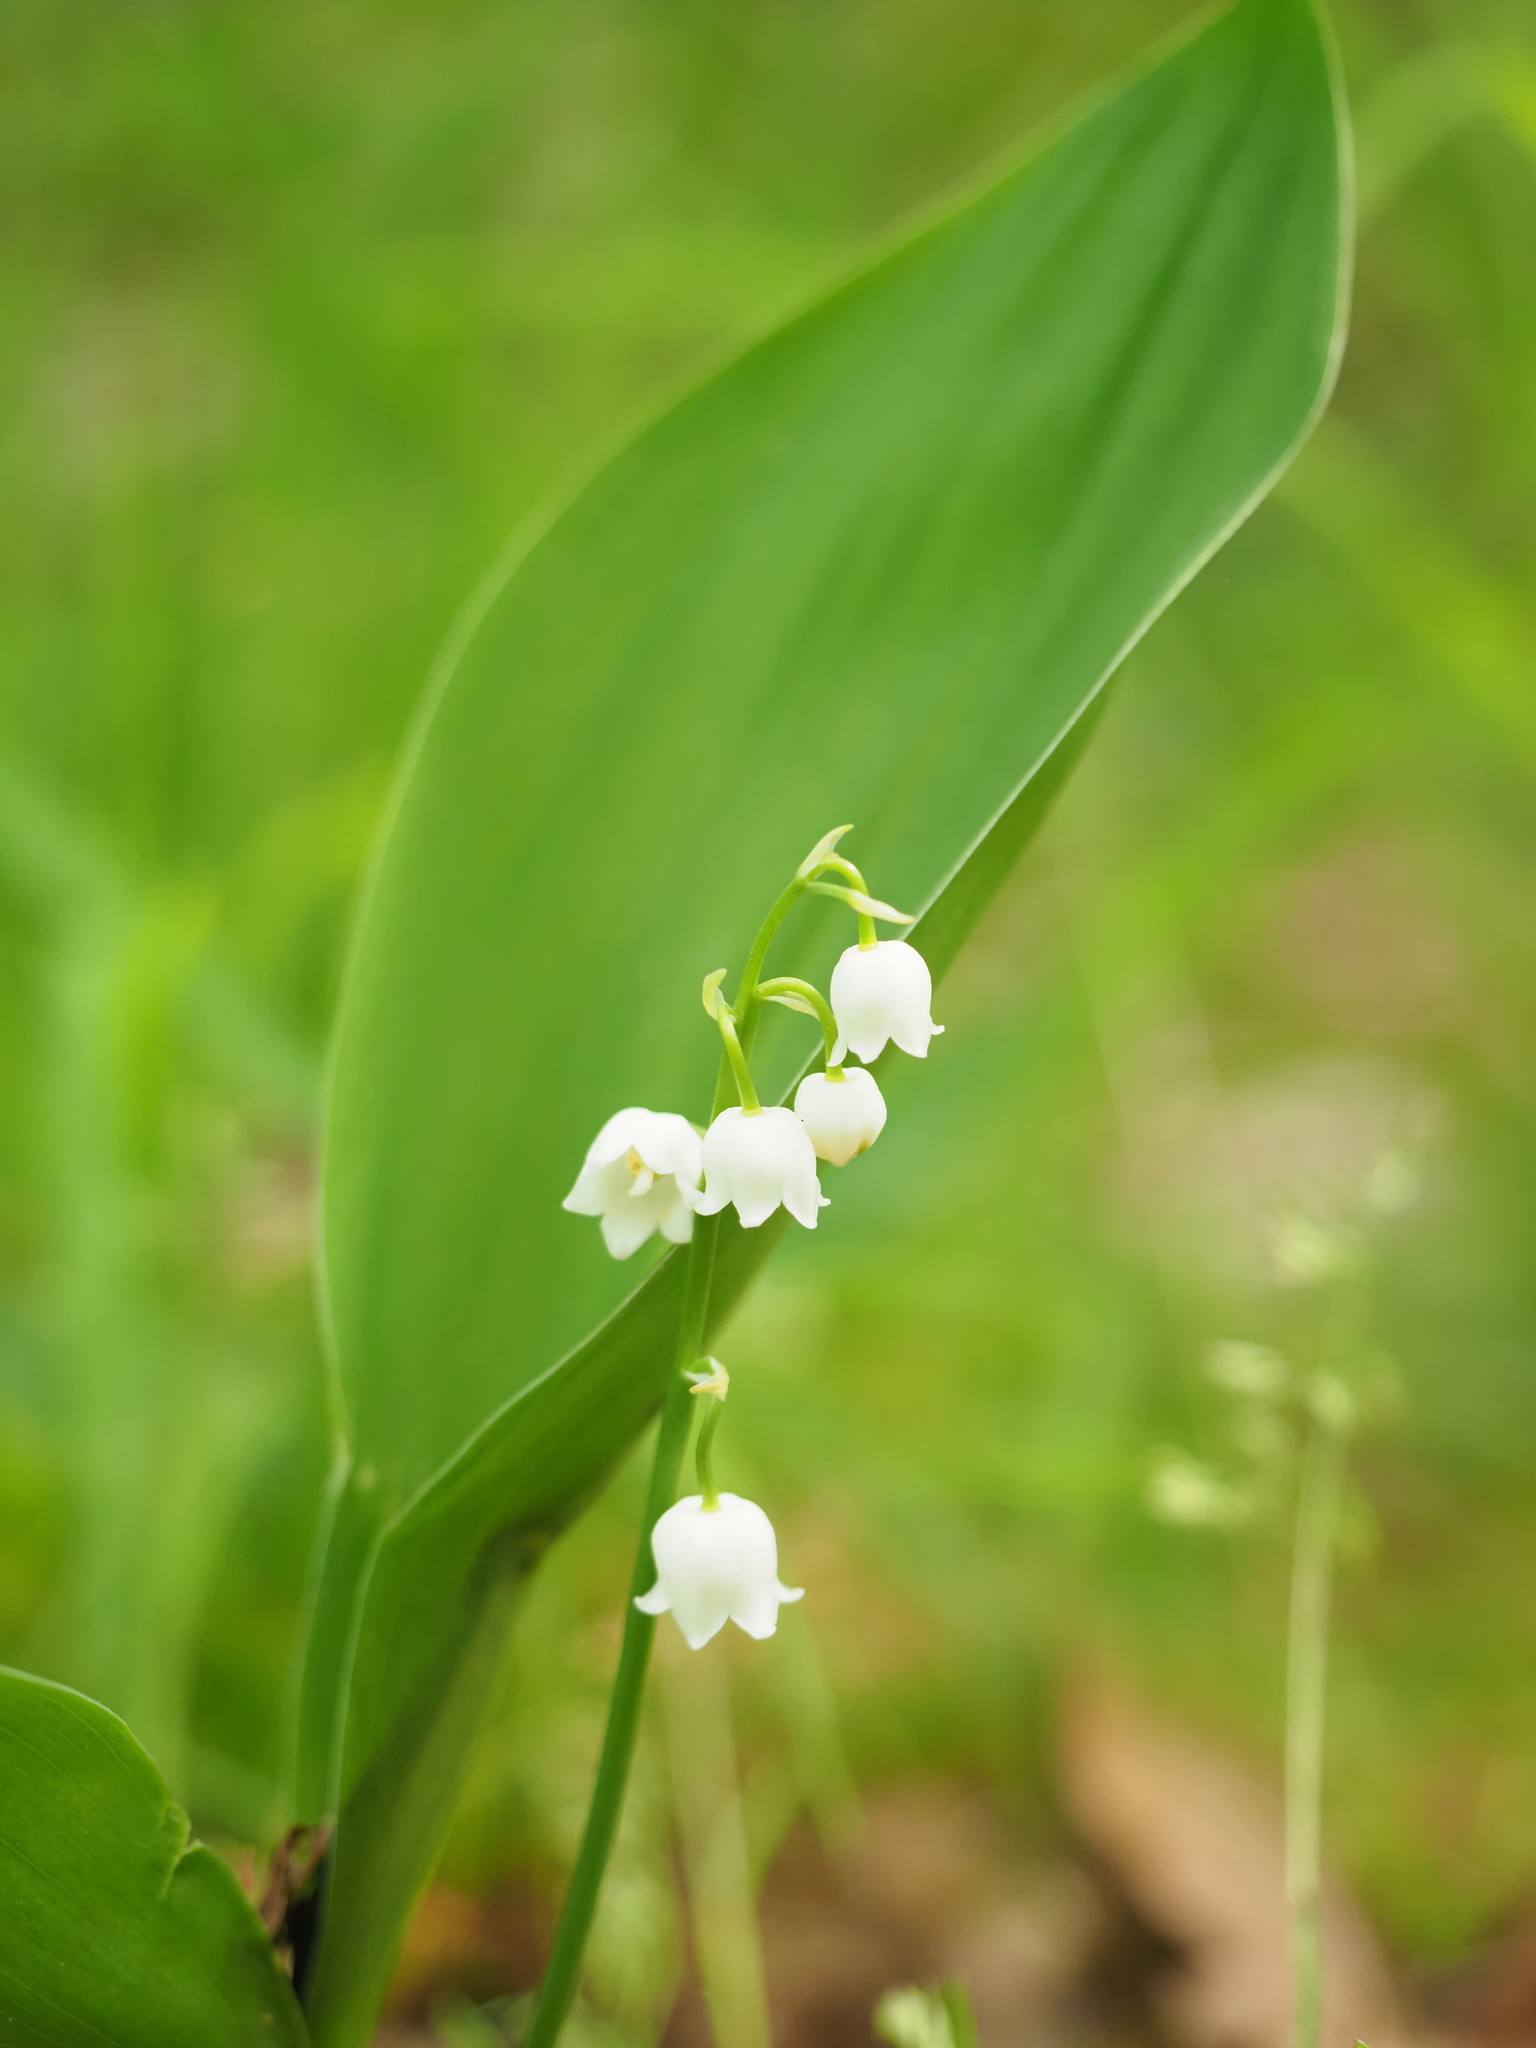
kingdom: Plantae
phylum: Tracheophyta
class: Liliopsida
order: Asparagales
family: Asparagaceae
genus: Convallaria
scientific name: Convallaria majalis
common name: Lily-of-the-valley
